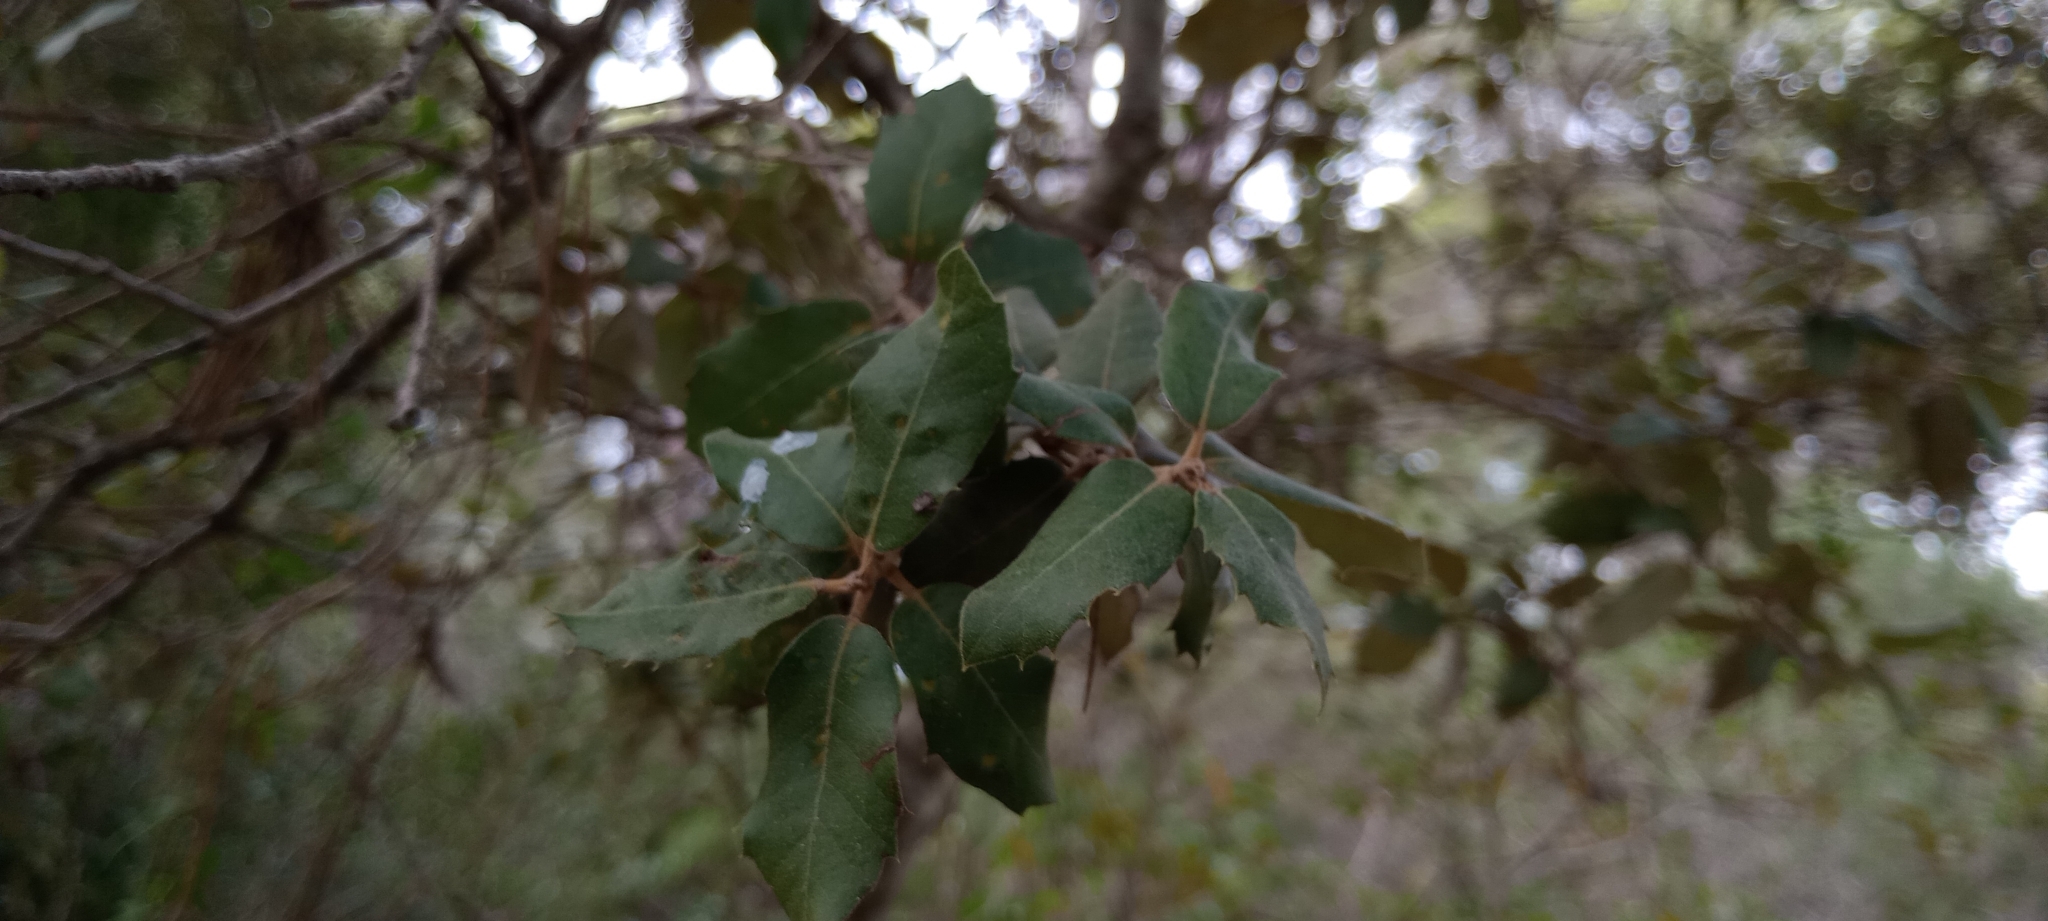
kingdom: Plantae
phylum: Tracheophyta
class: Magnoliopsida
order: Fagales
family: Fagaceae
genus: Quercus
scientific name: Quercus ilex
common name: Evergreen oak
